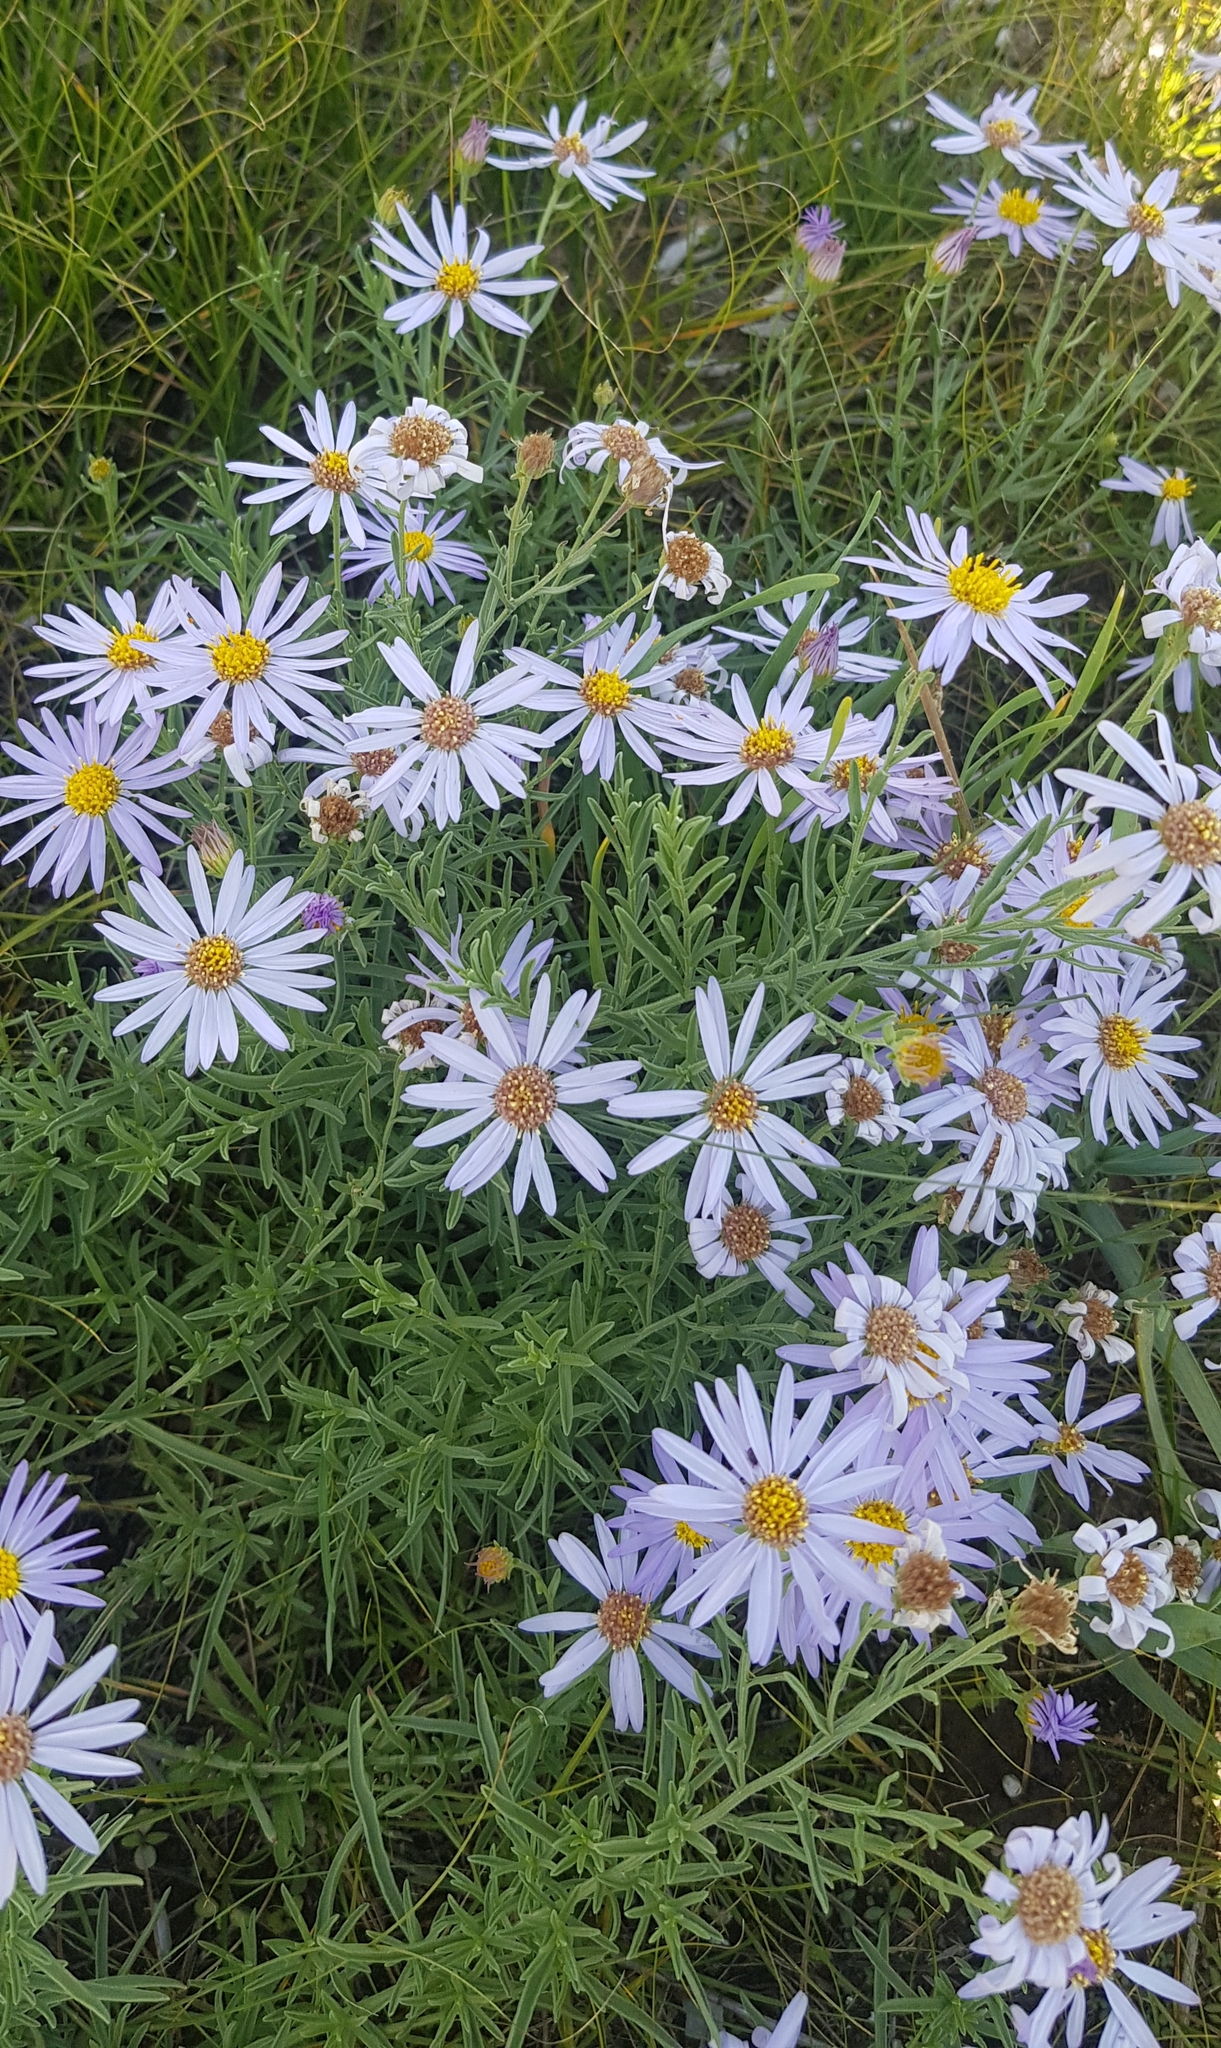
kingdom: Plantae
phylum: Tracheophyta
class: Magnoliopsida
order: Asterales
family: Asteraceae
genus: Heteropappus
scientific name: Heteropappus altaicus
